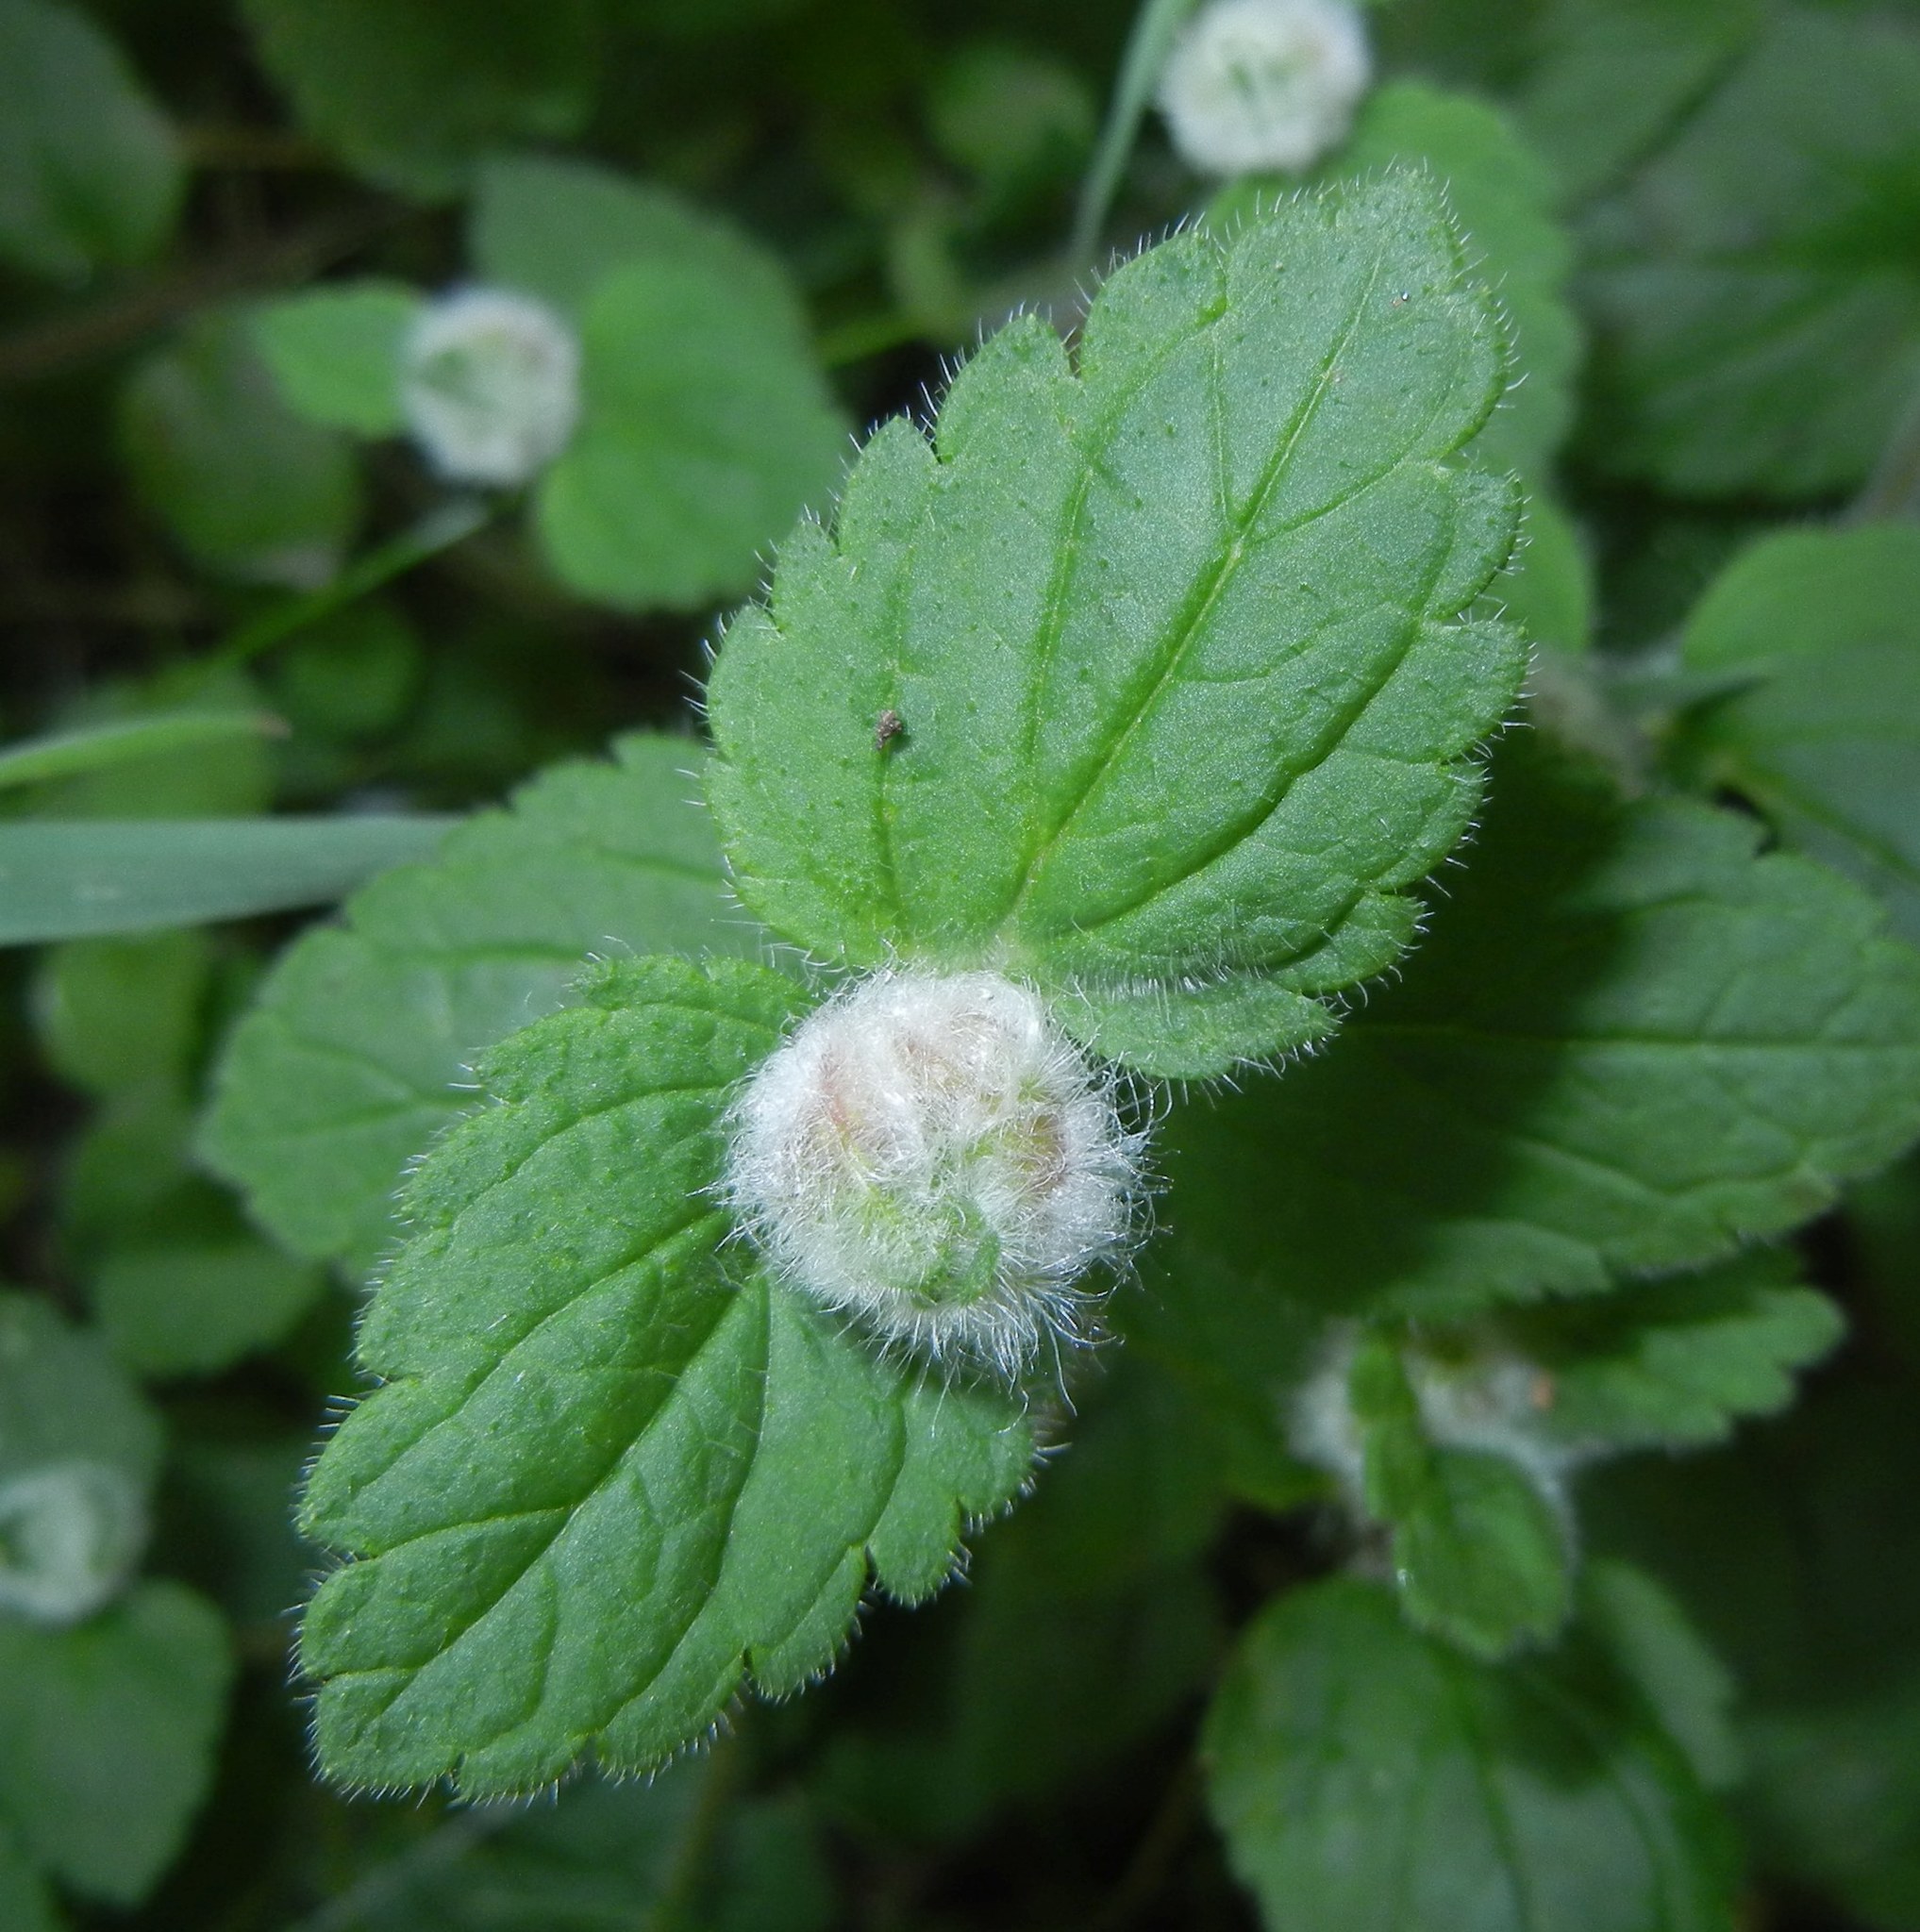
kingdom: Animalia
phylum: Arthropoda
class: Insecta
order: Diptera
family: Cecidomyiidae
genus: Jaapiella
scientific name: Jaapiella veronicae
